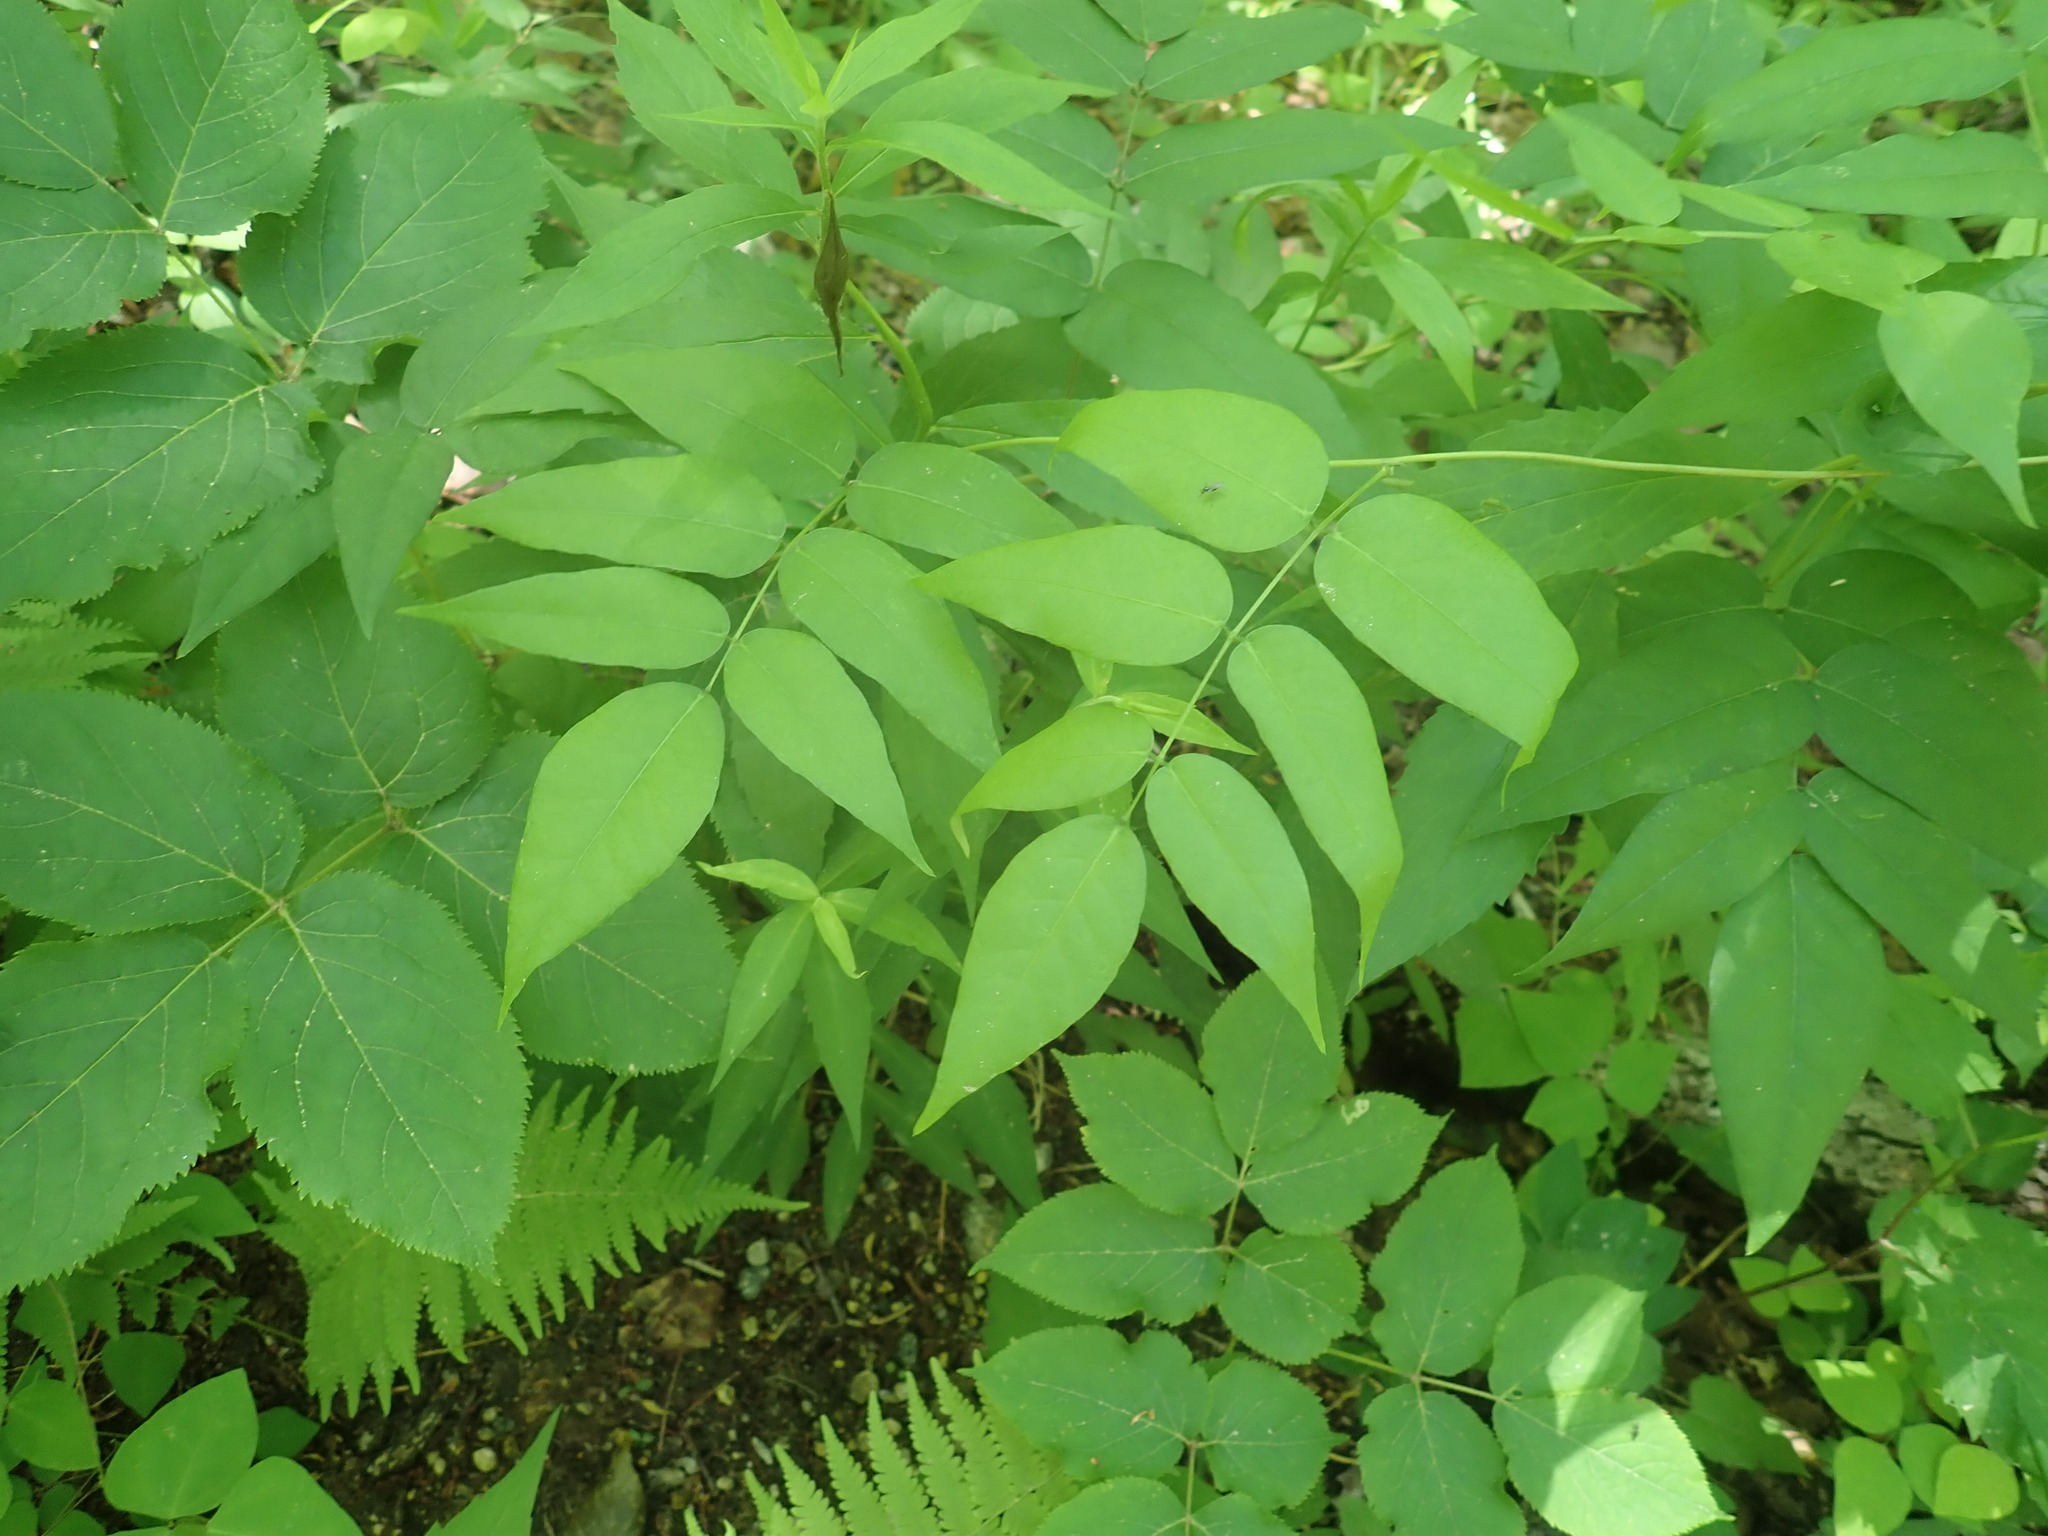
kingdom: Plantae
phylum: Tracheophyta
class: Magnoliopsida
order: Fabales
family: Fabaceae
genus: Apios
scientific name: Apios americana
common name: American potato-bean
